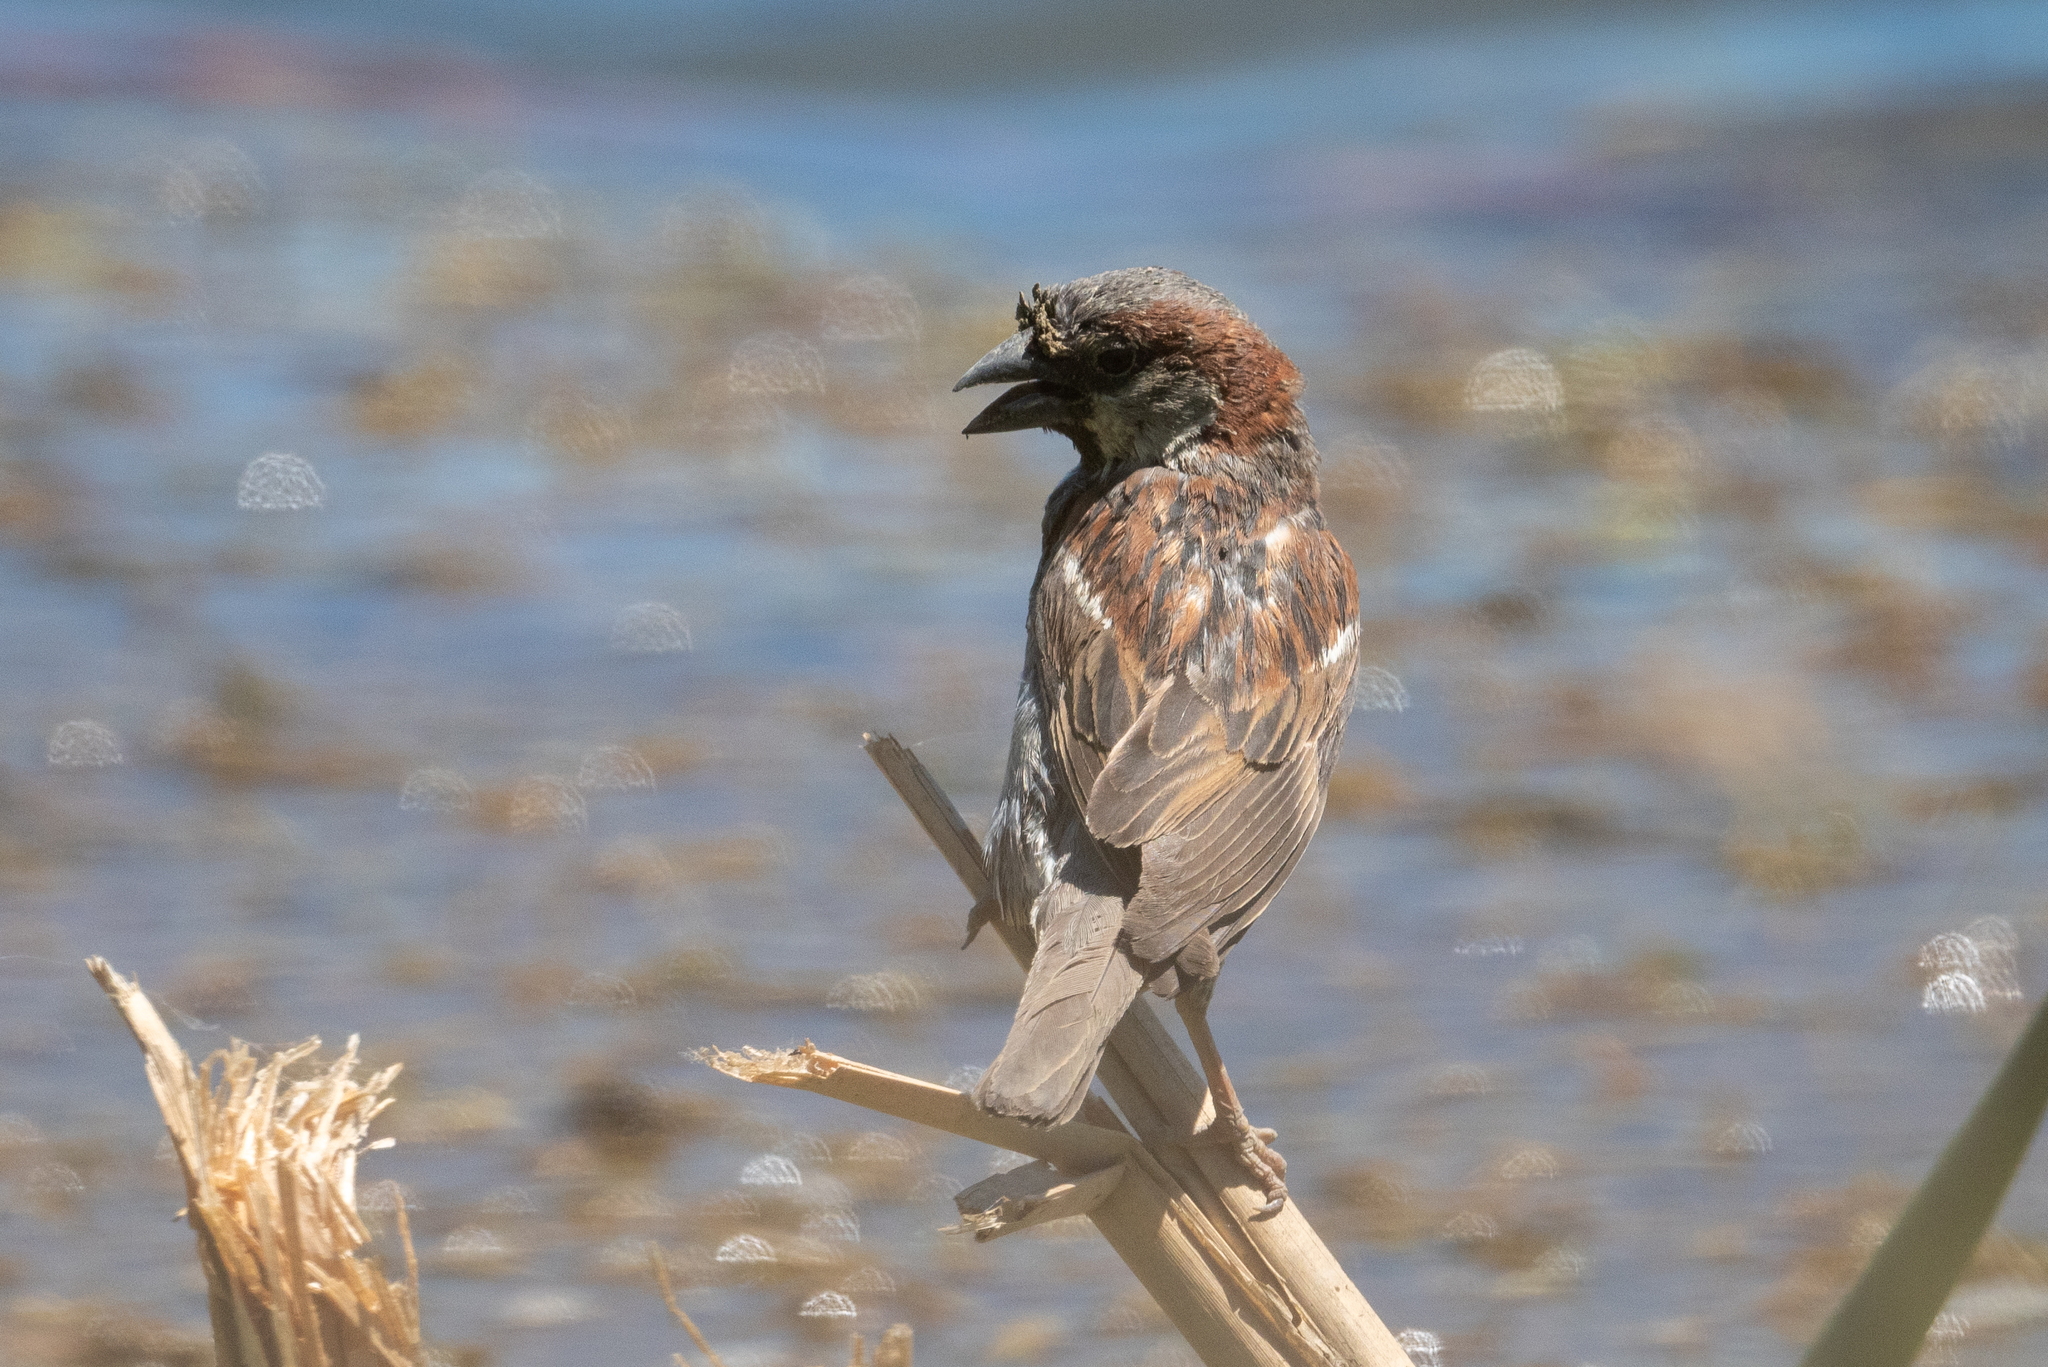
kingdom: Animalia
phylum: Chordata
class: Aves
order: Passeriformes
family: Passeridae
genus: Passer
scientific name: Passer domesticus
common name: House sparrow
